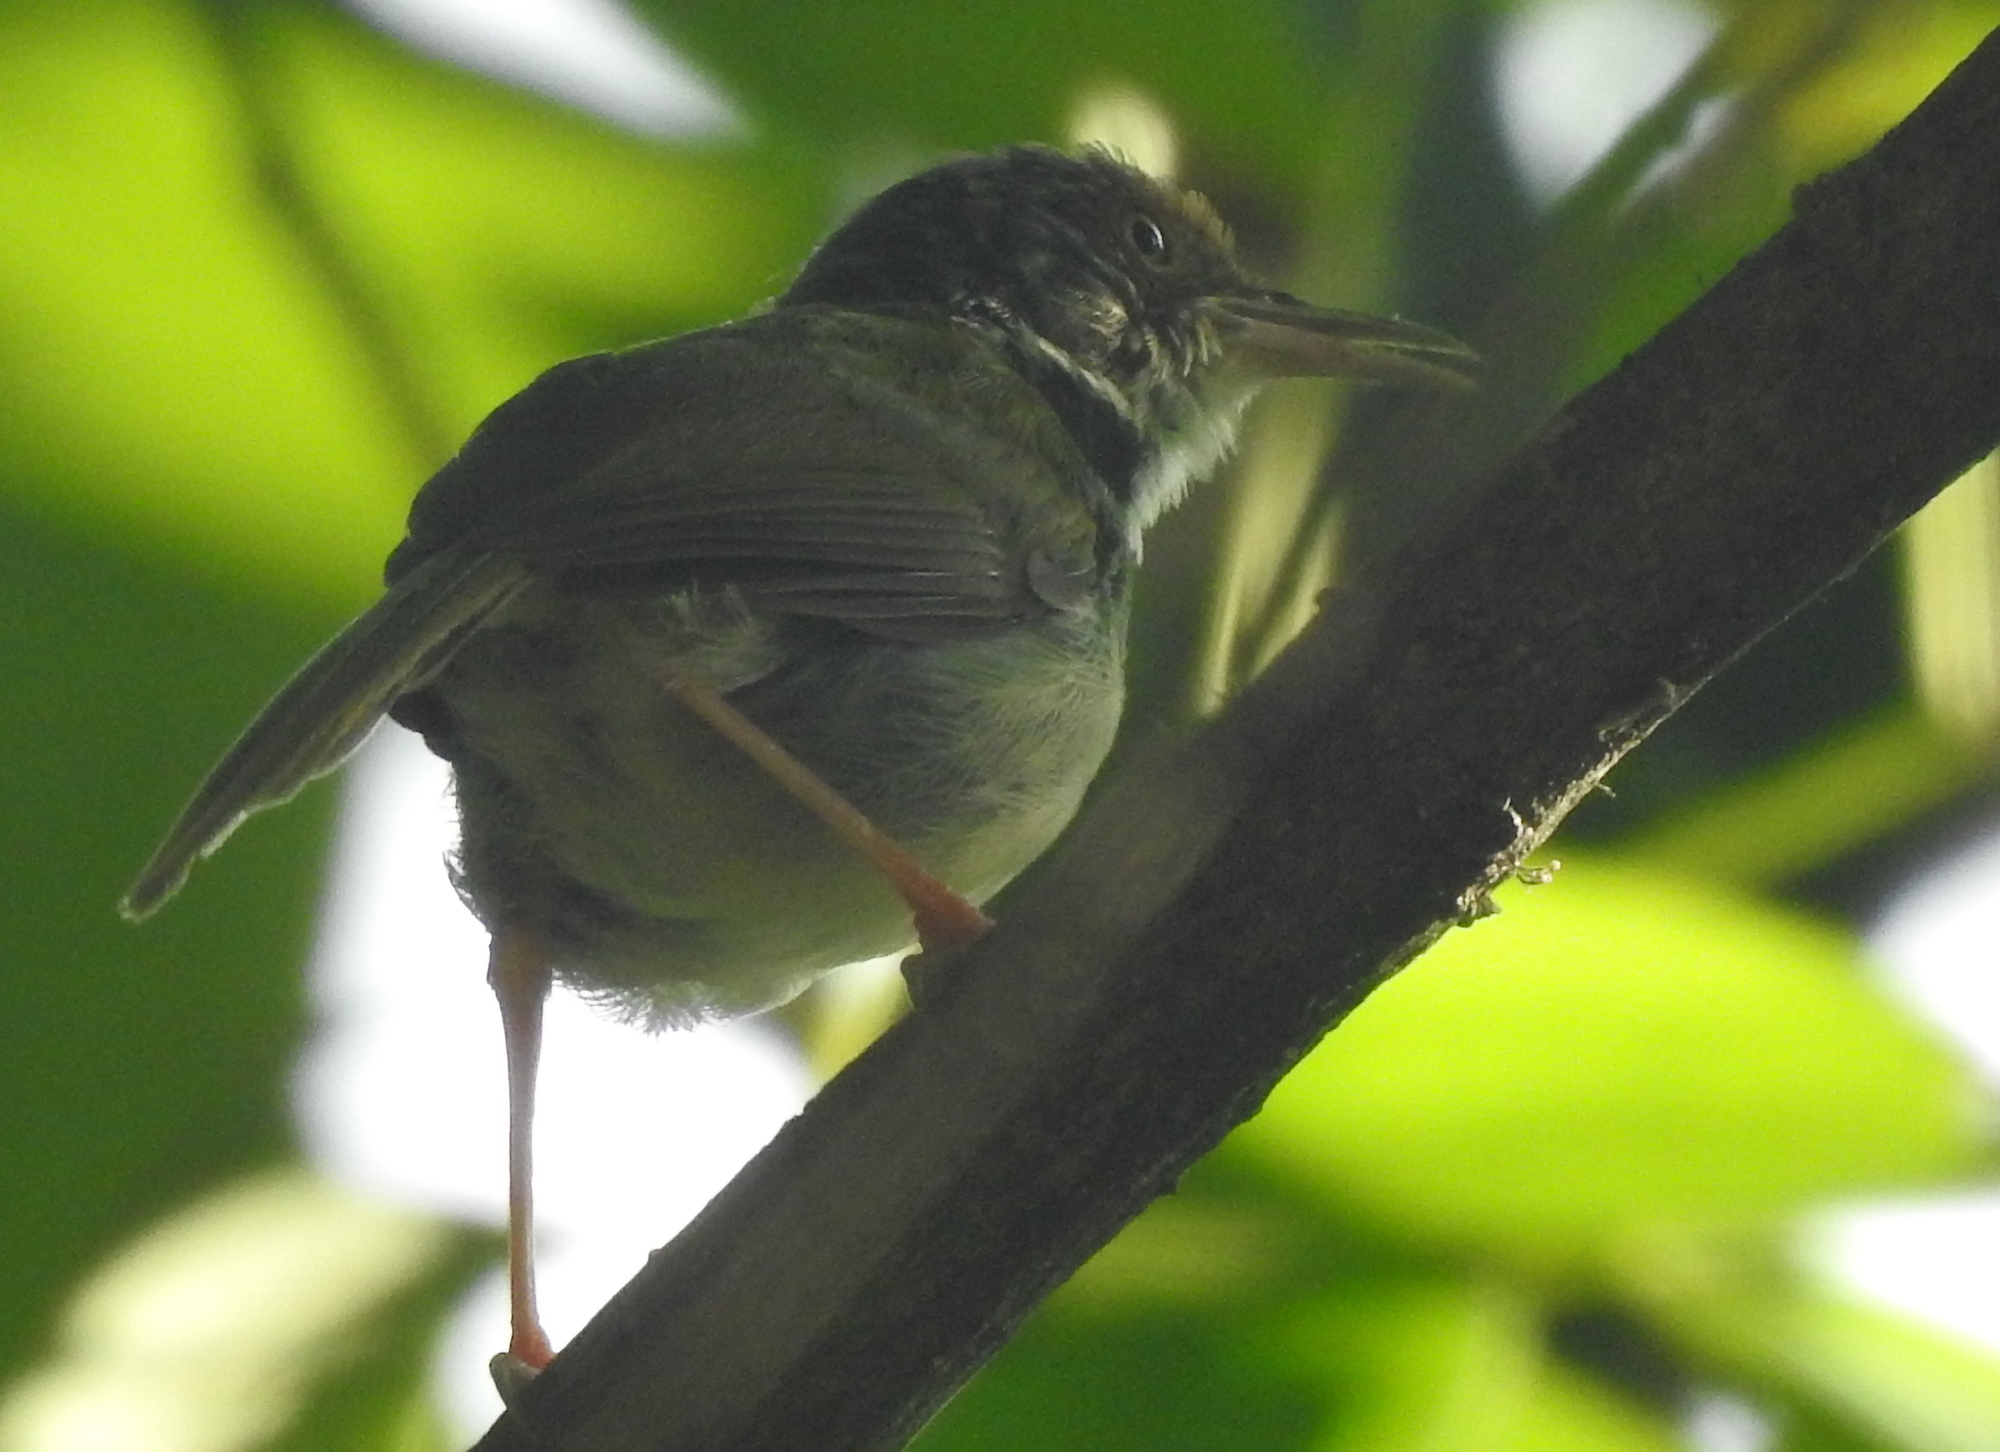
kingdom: Animalia
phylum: Chordata
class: Aves
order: Passeriformes
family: Cisticolidae
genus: Orthotomus
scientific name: Orthotomus sutorius
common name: Common tailorbird
